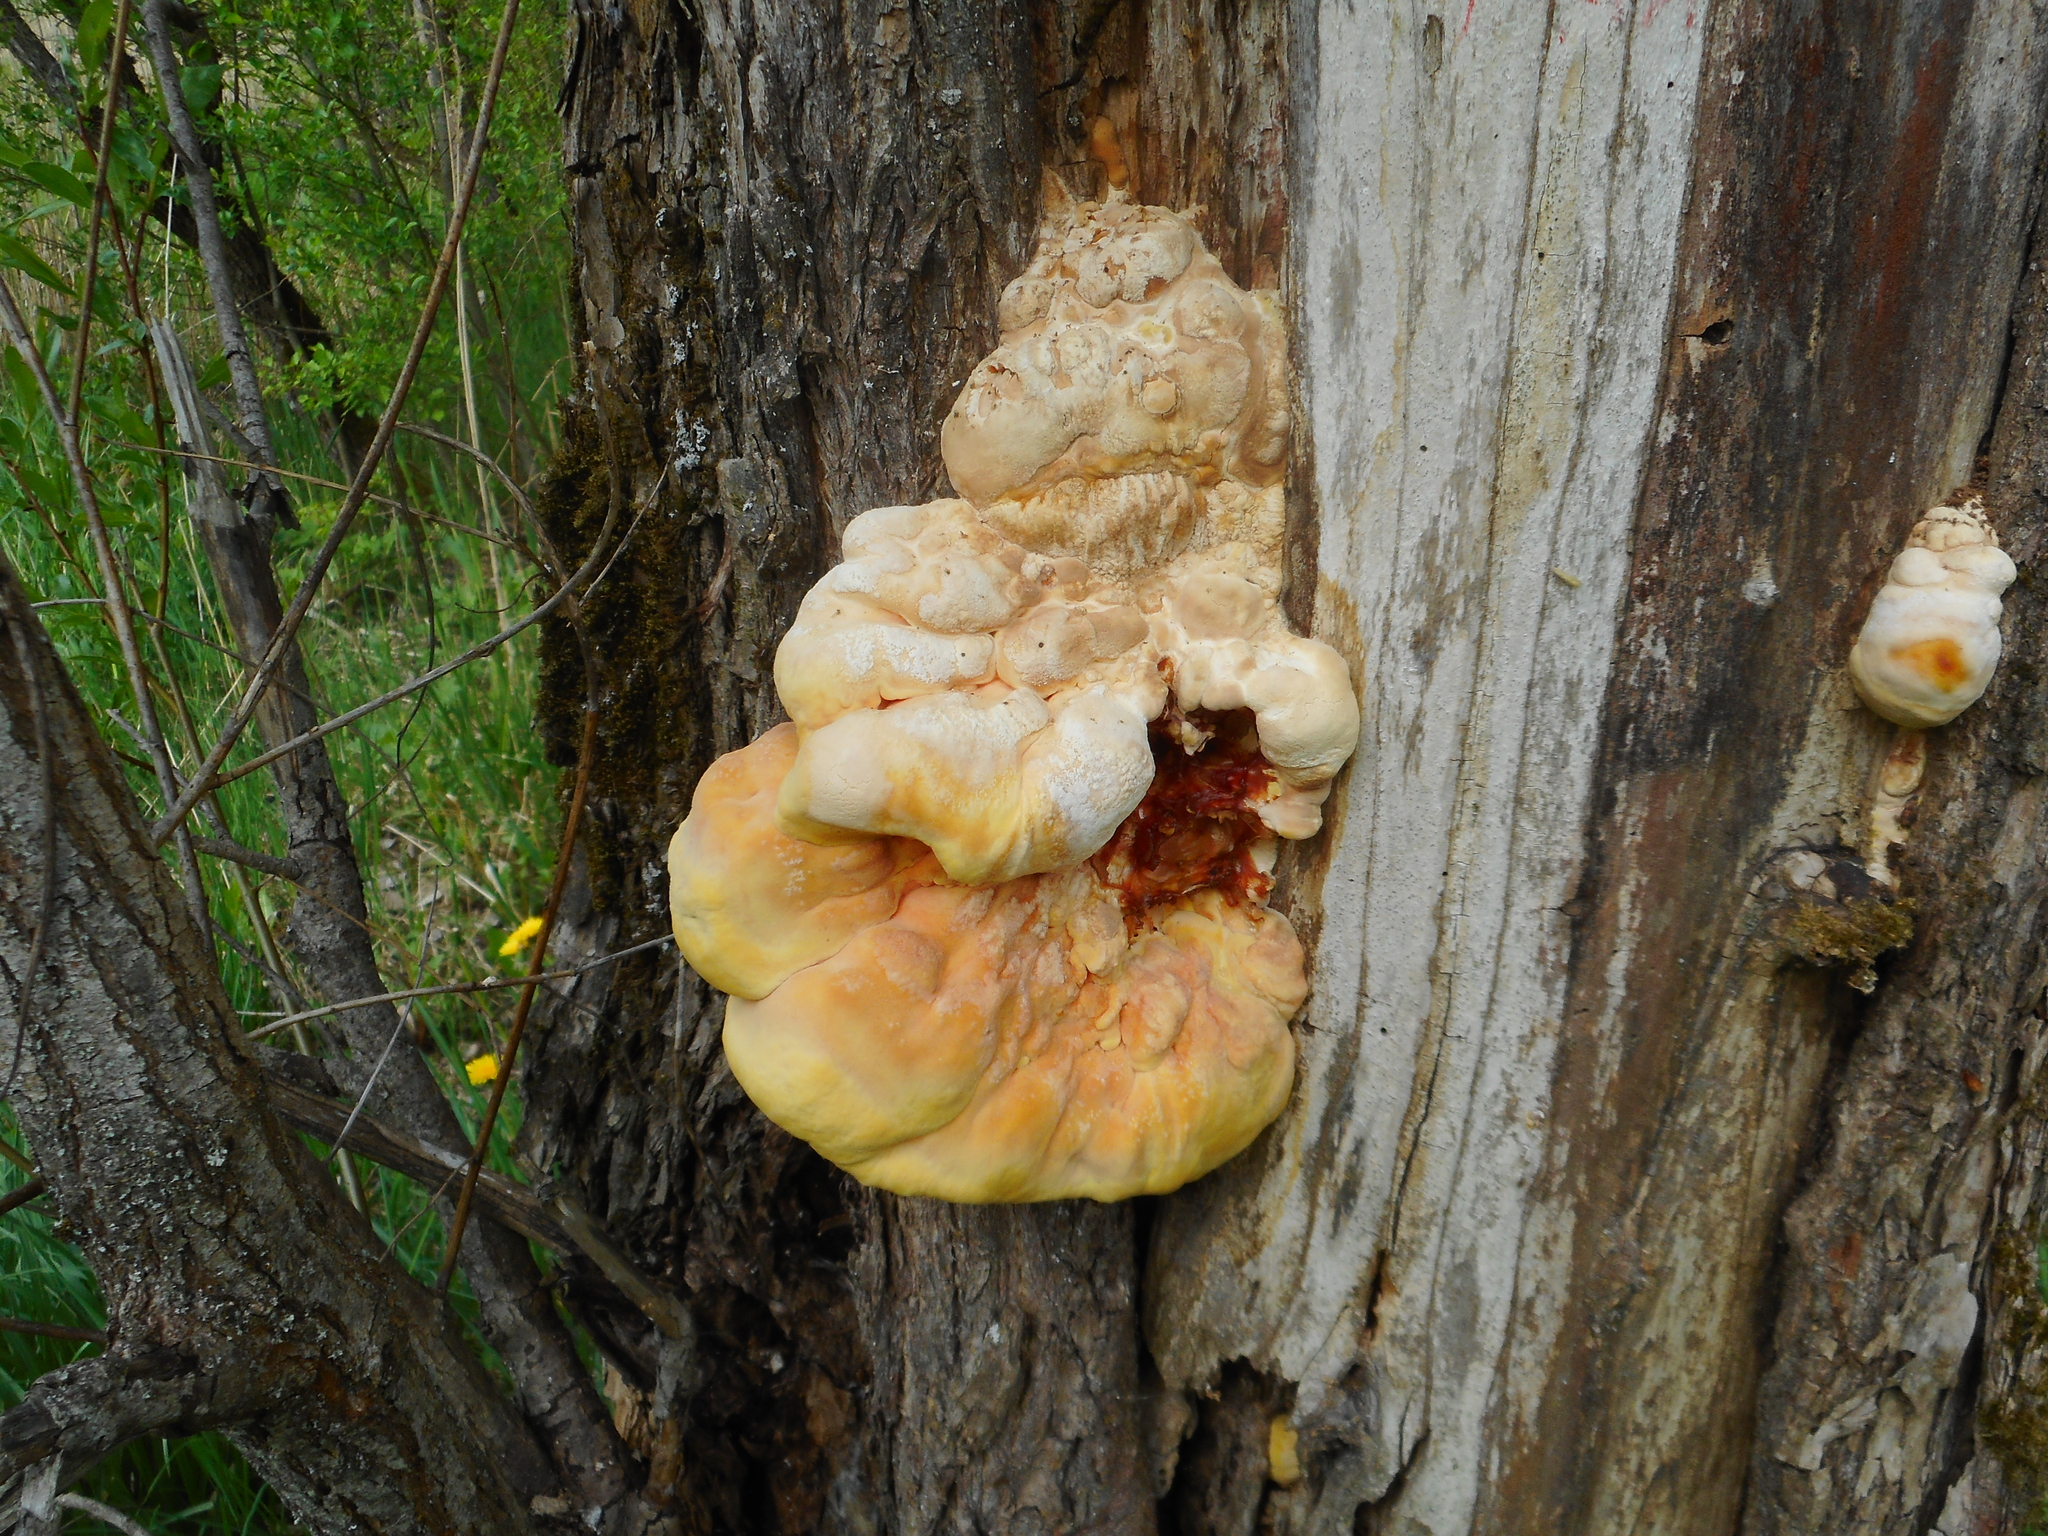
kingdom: Fungi
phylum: Basidiomycota
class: Agaricomycetes
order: Polyporales
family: Laetiporaceae
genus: Laetiporus
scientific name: Laetiporus sulphureus
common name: Chicken of the woods
